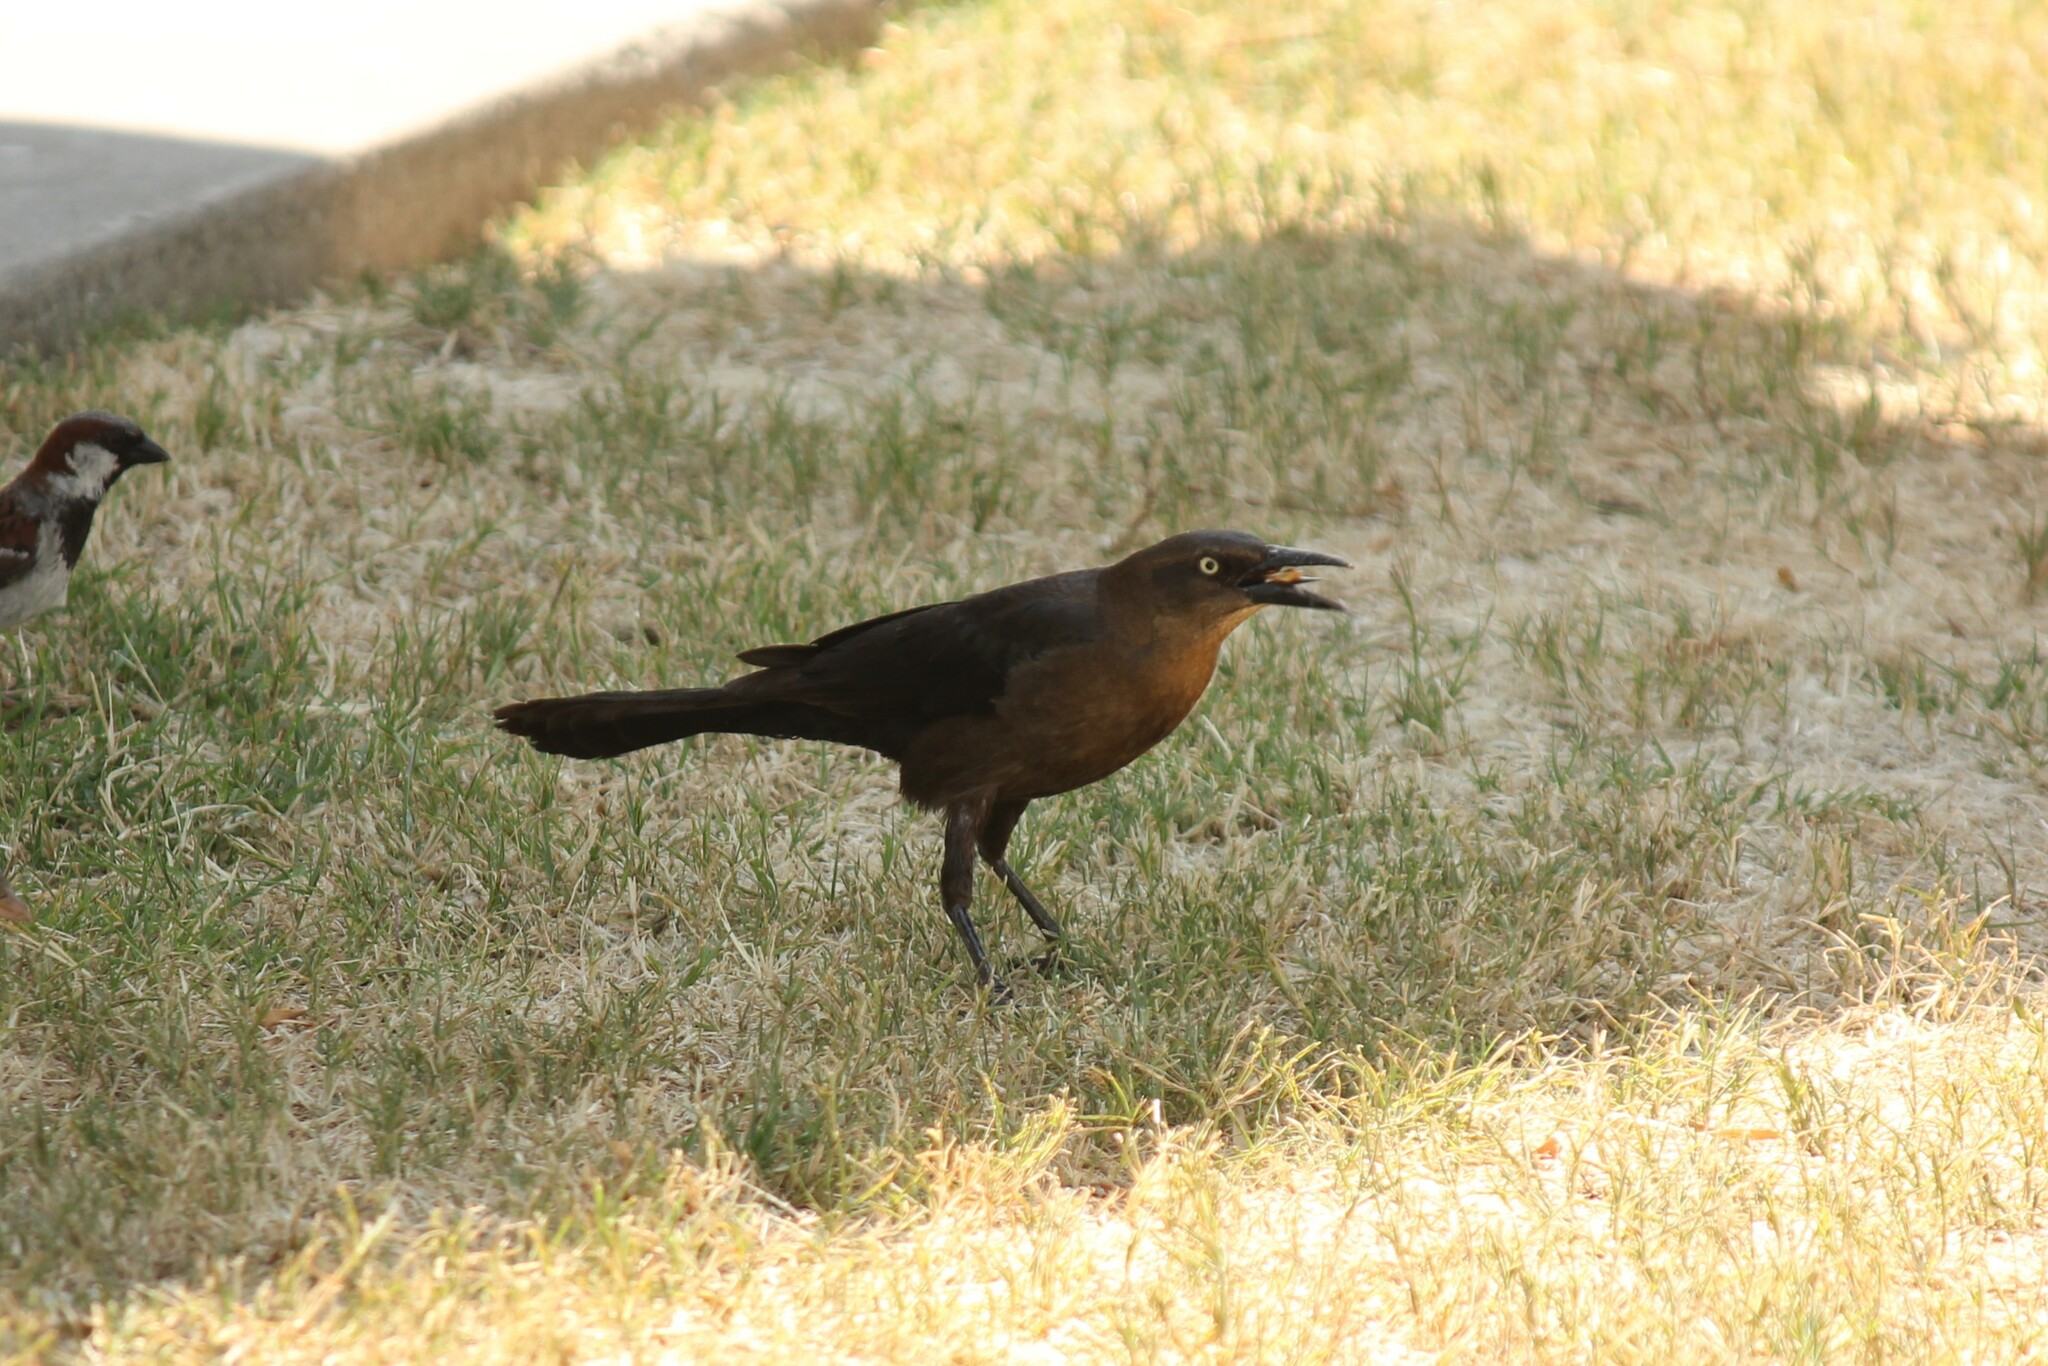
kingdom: Animalia
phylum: Chordata
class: Aves
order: Passeriformes
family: Icteridae
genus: Quiscalus
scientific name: Quiscalus mexicanus
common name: Great-tailed grackle
